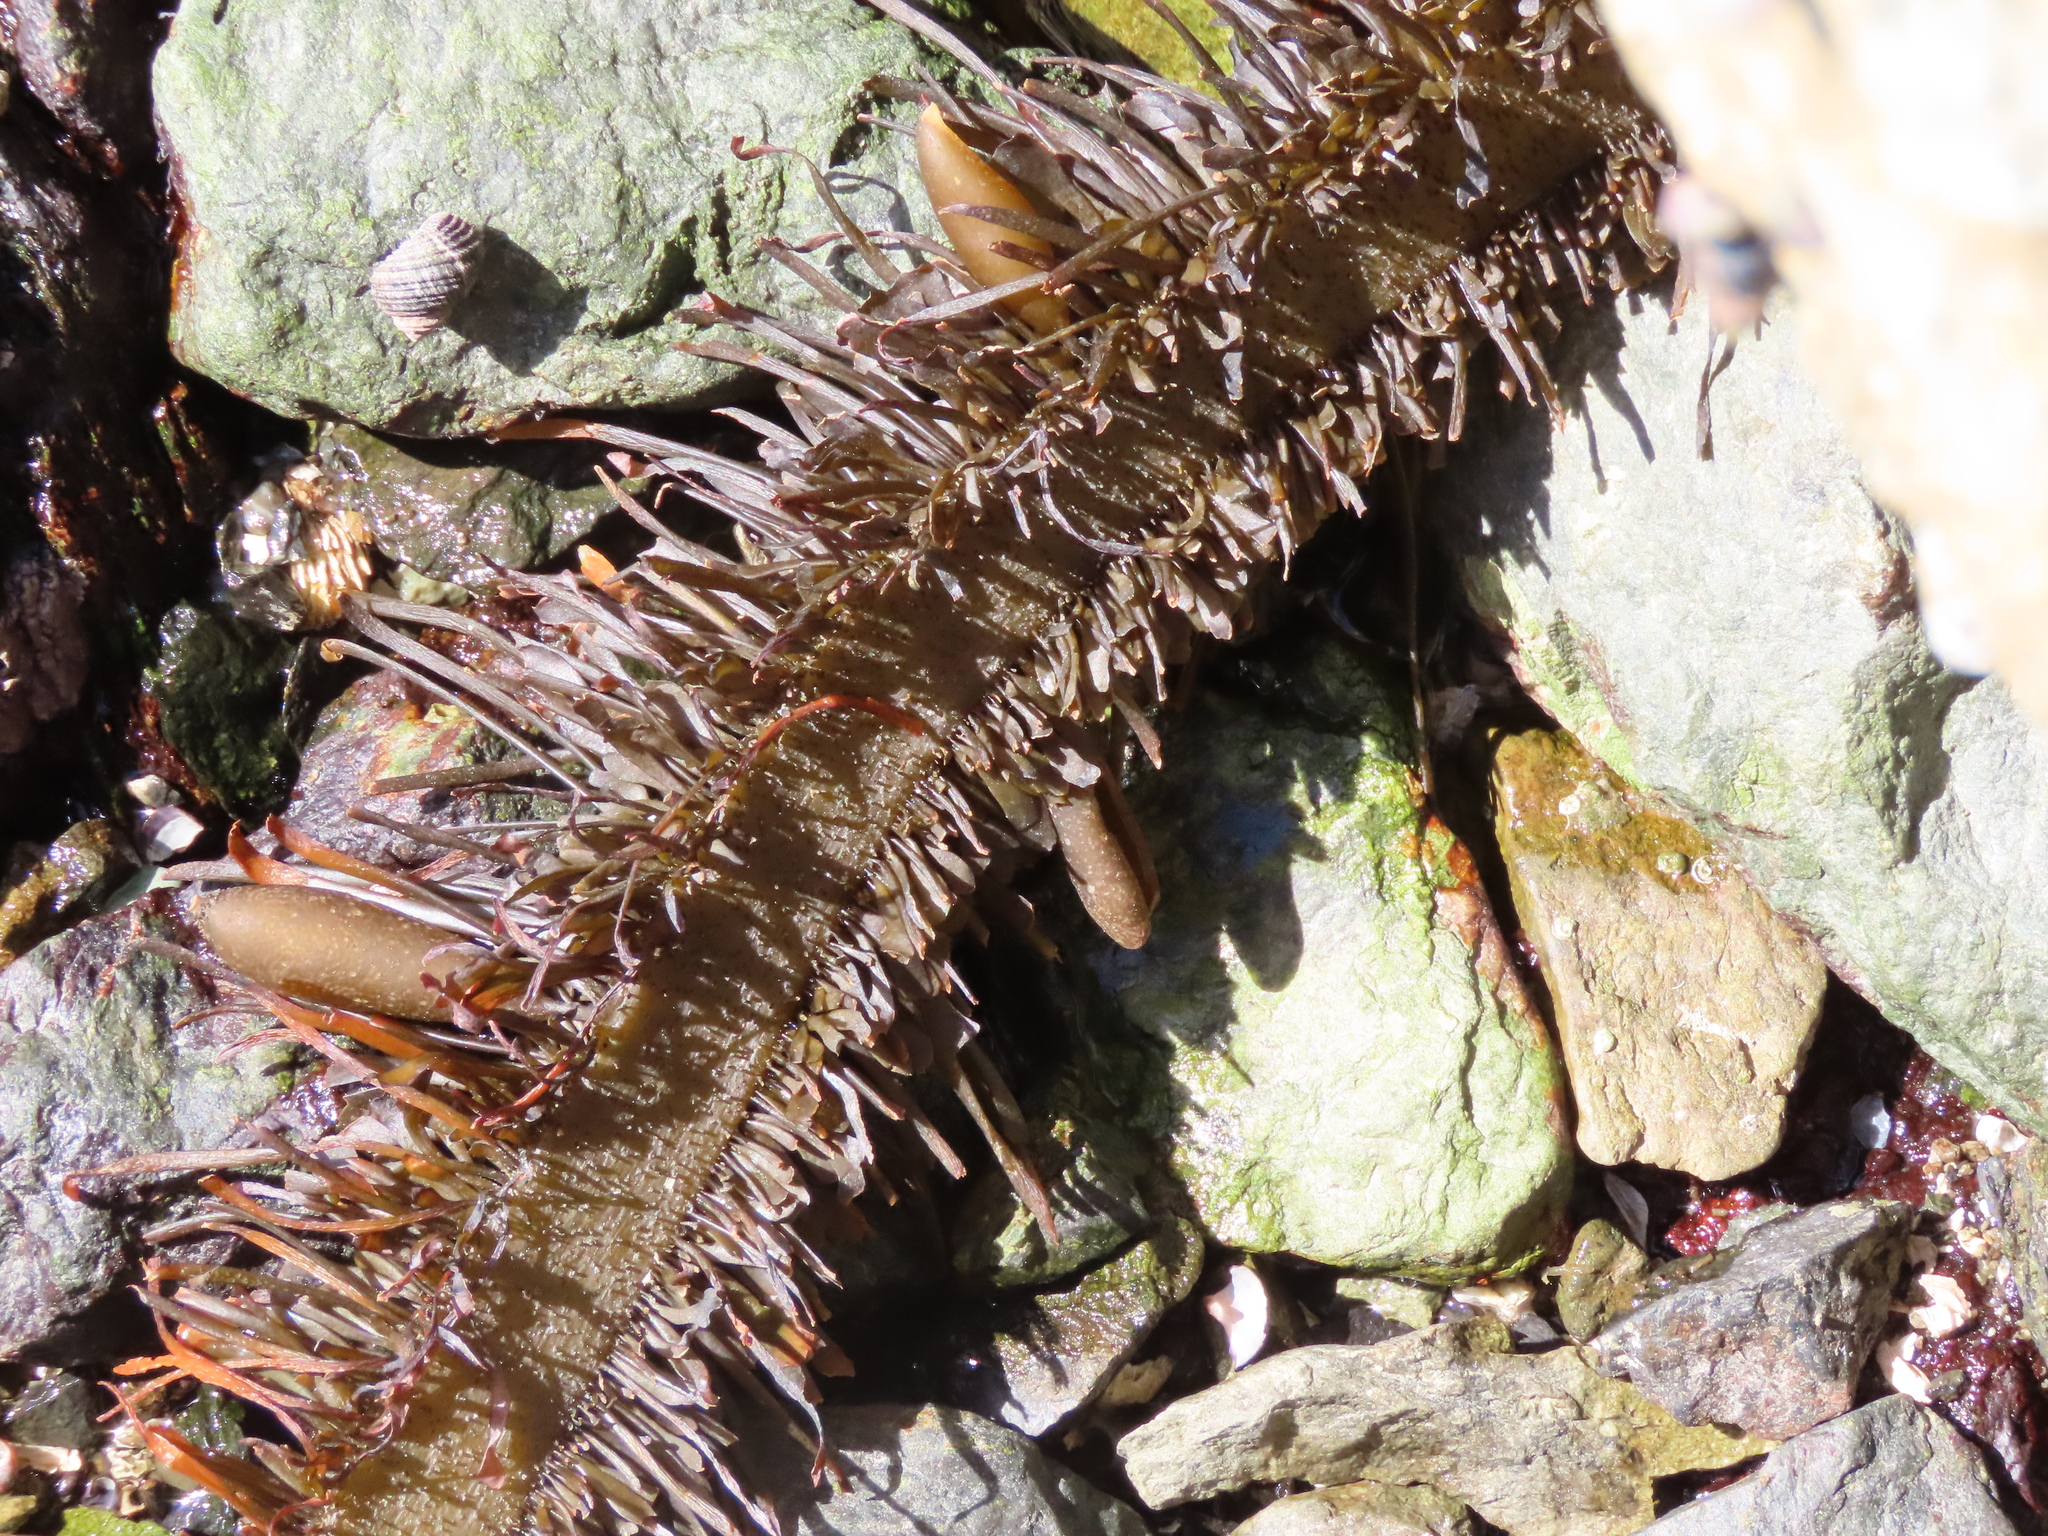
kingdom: Chromista
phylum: Ochrophyta
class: Phaeophyceae
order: Laminariales
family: Lessoniaceae
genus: Egregia
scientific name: Egregia menziesii
